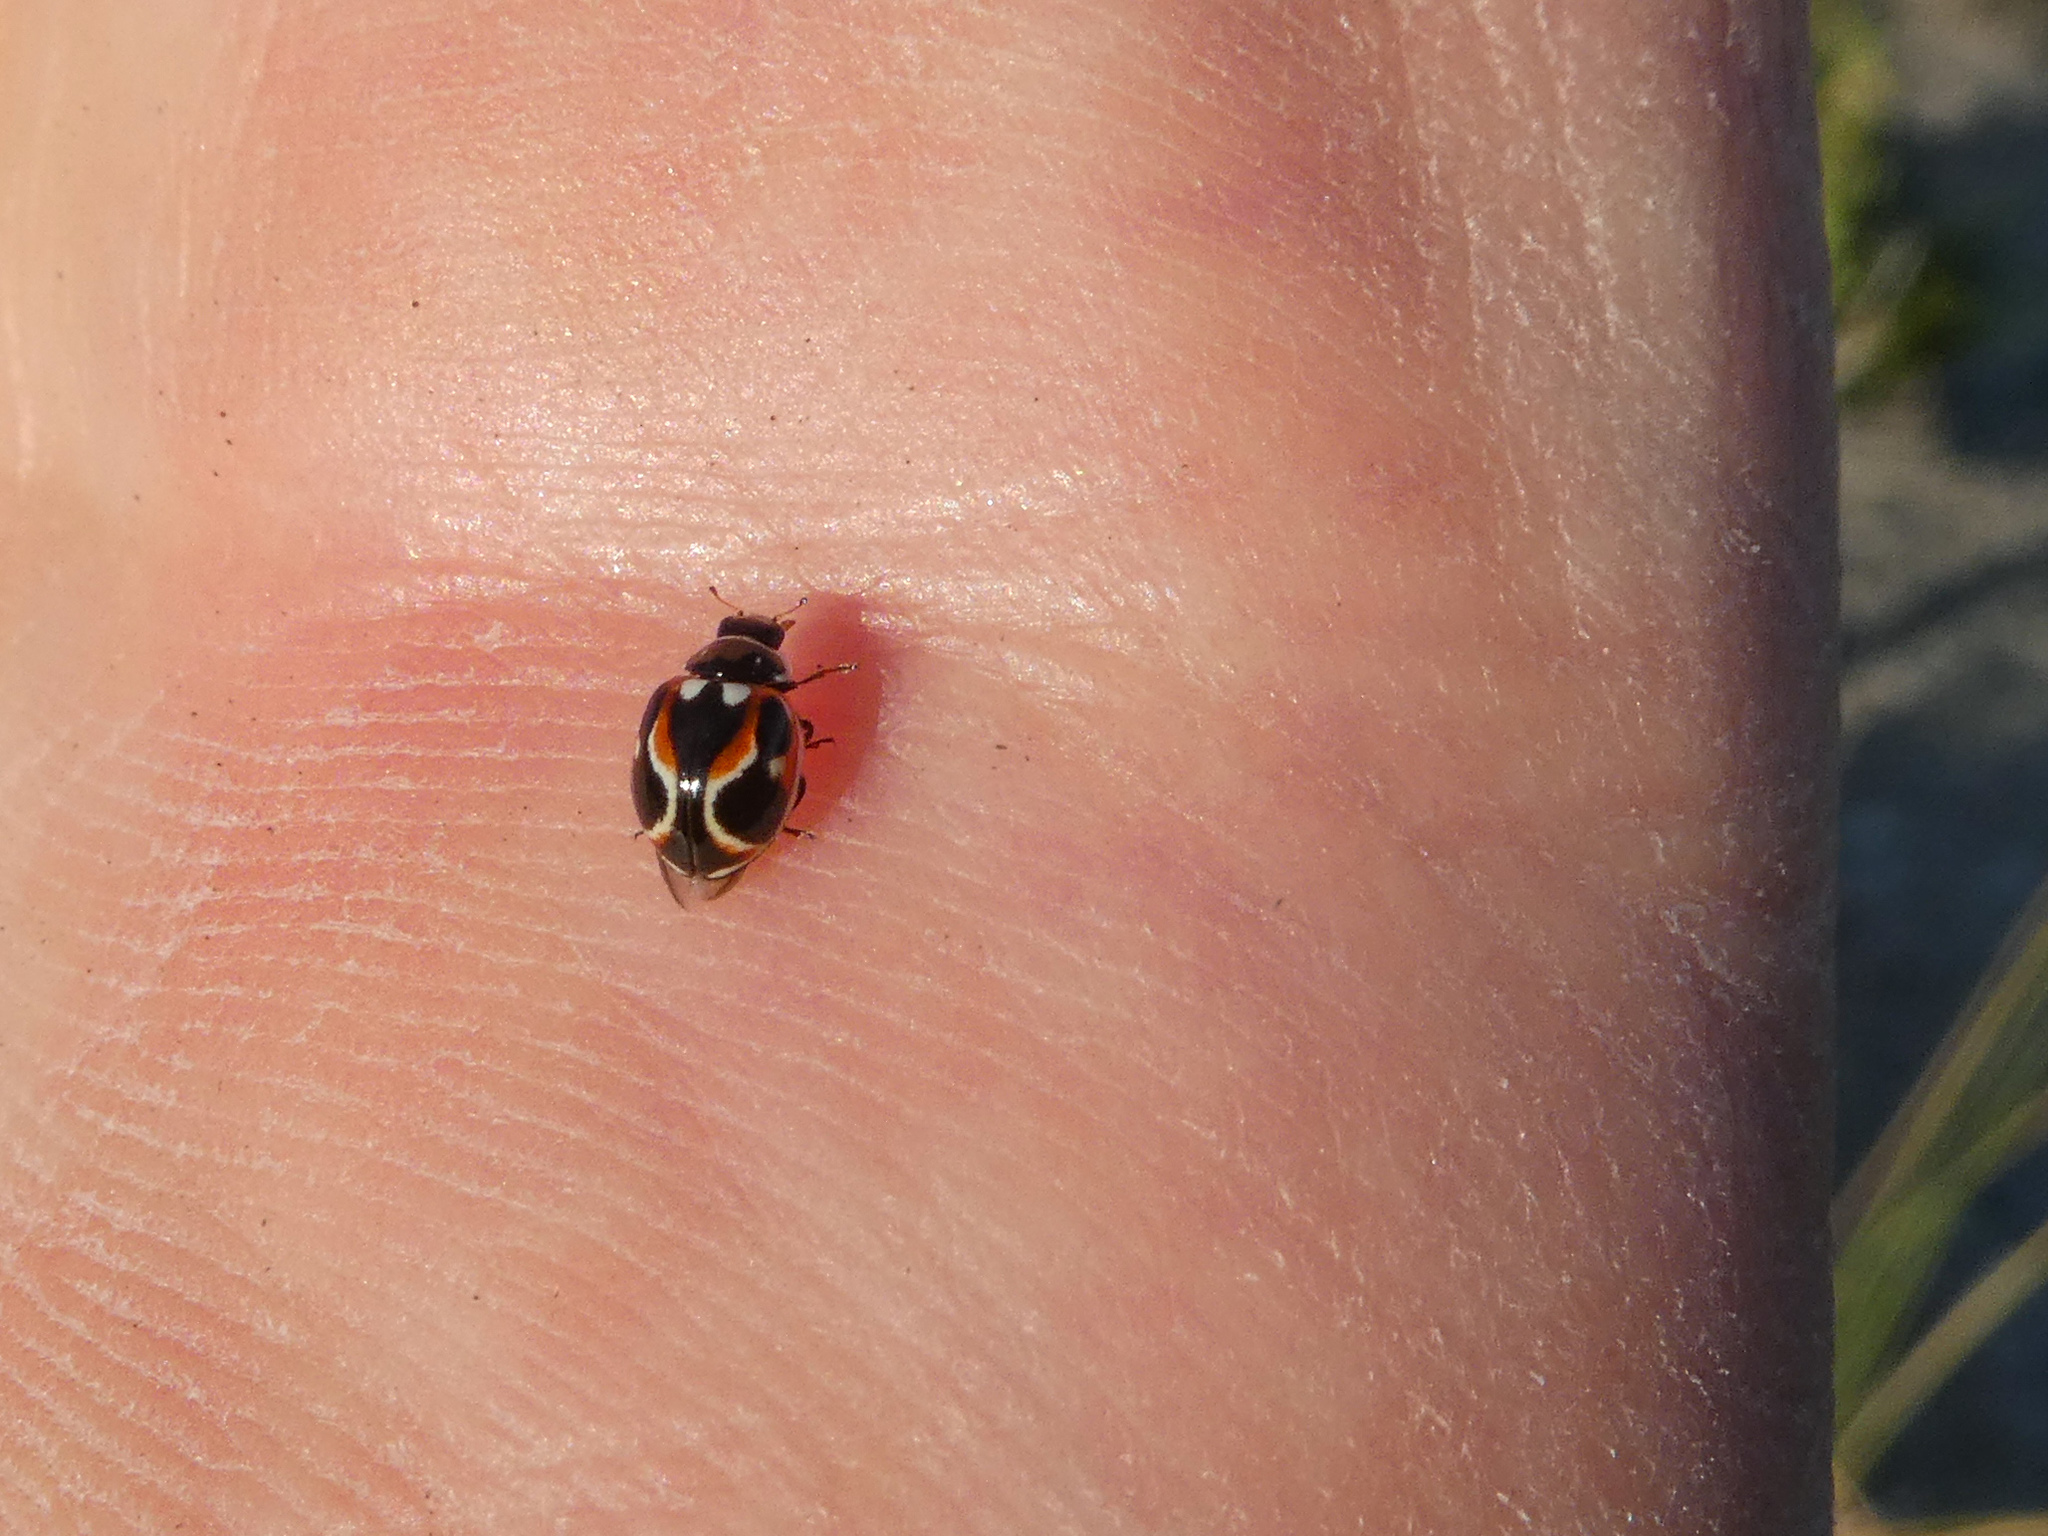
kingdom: Animalia
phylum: Arthropoda
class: Insecta
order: Coleoptera
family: Coccinellidae
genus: Cycloneda
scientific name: Cycloneda ancoralis
